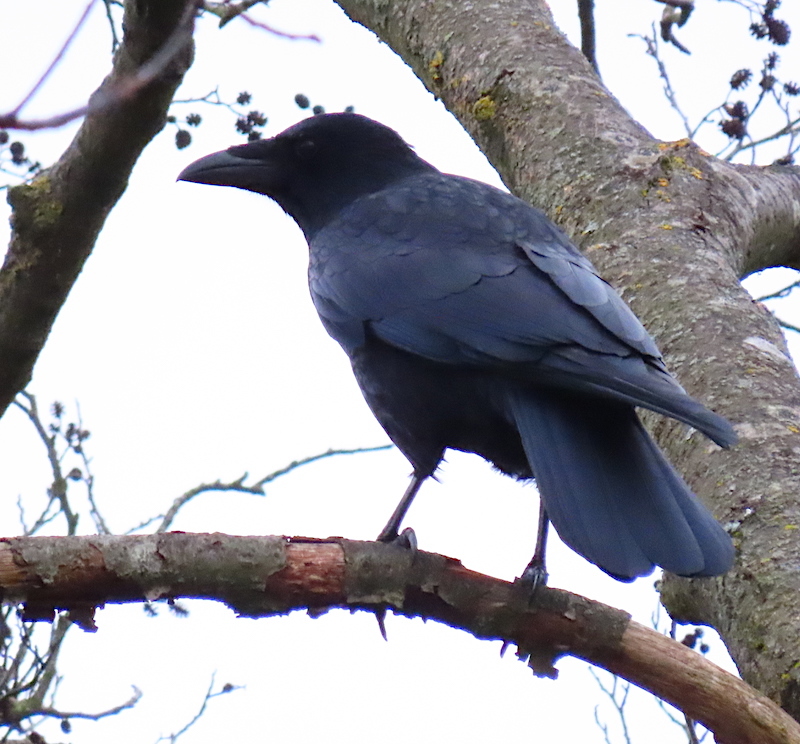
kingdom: Animalia
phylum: Chordata
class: Aves
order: Passeriformes
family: Corvidae
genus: Corvus
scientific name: Corvus corone
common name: Carrion crow
